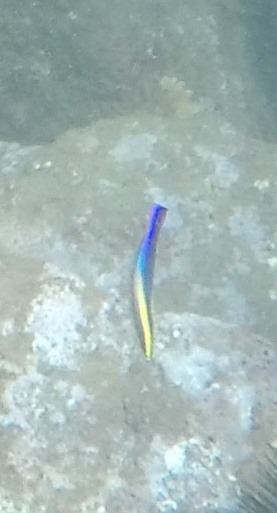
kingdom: Animalia
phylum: Chordata
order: Perciformes
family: Labridae
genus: Labroides
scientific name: Labroides phthirophagus
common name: Cleaner wrasse
